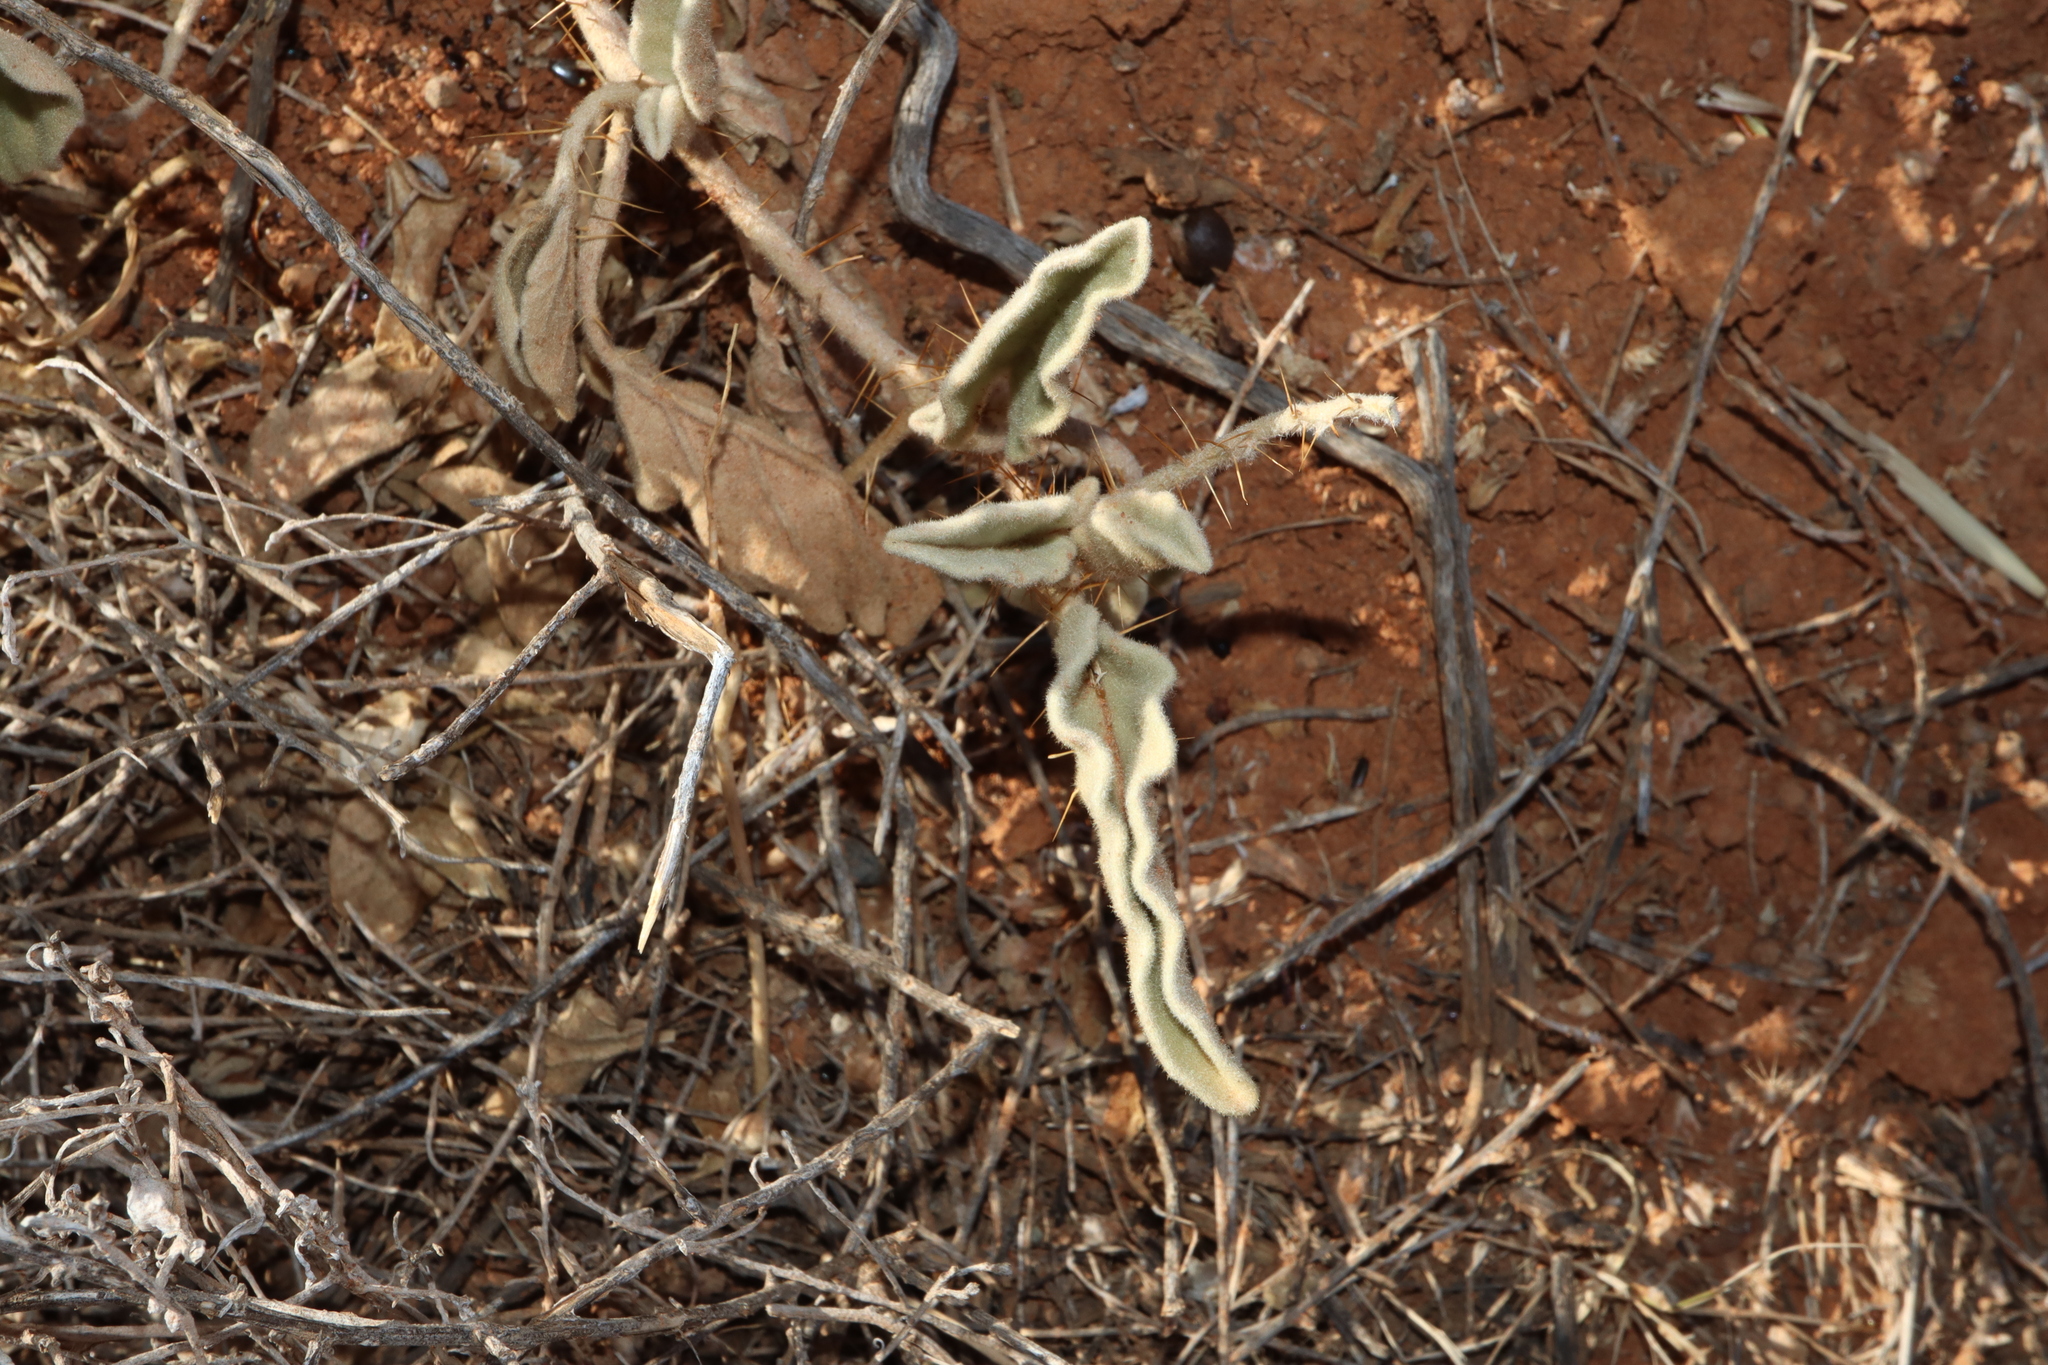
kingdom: Plantae
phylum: Tracheophyta
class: Magnoliopsida
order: Solanales
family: Solanaceae
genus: Solanum
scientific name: Solanum ellipticum
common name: Potato-bush
